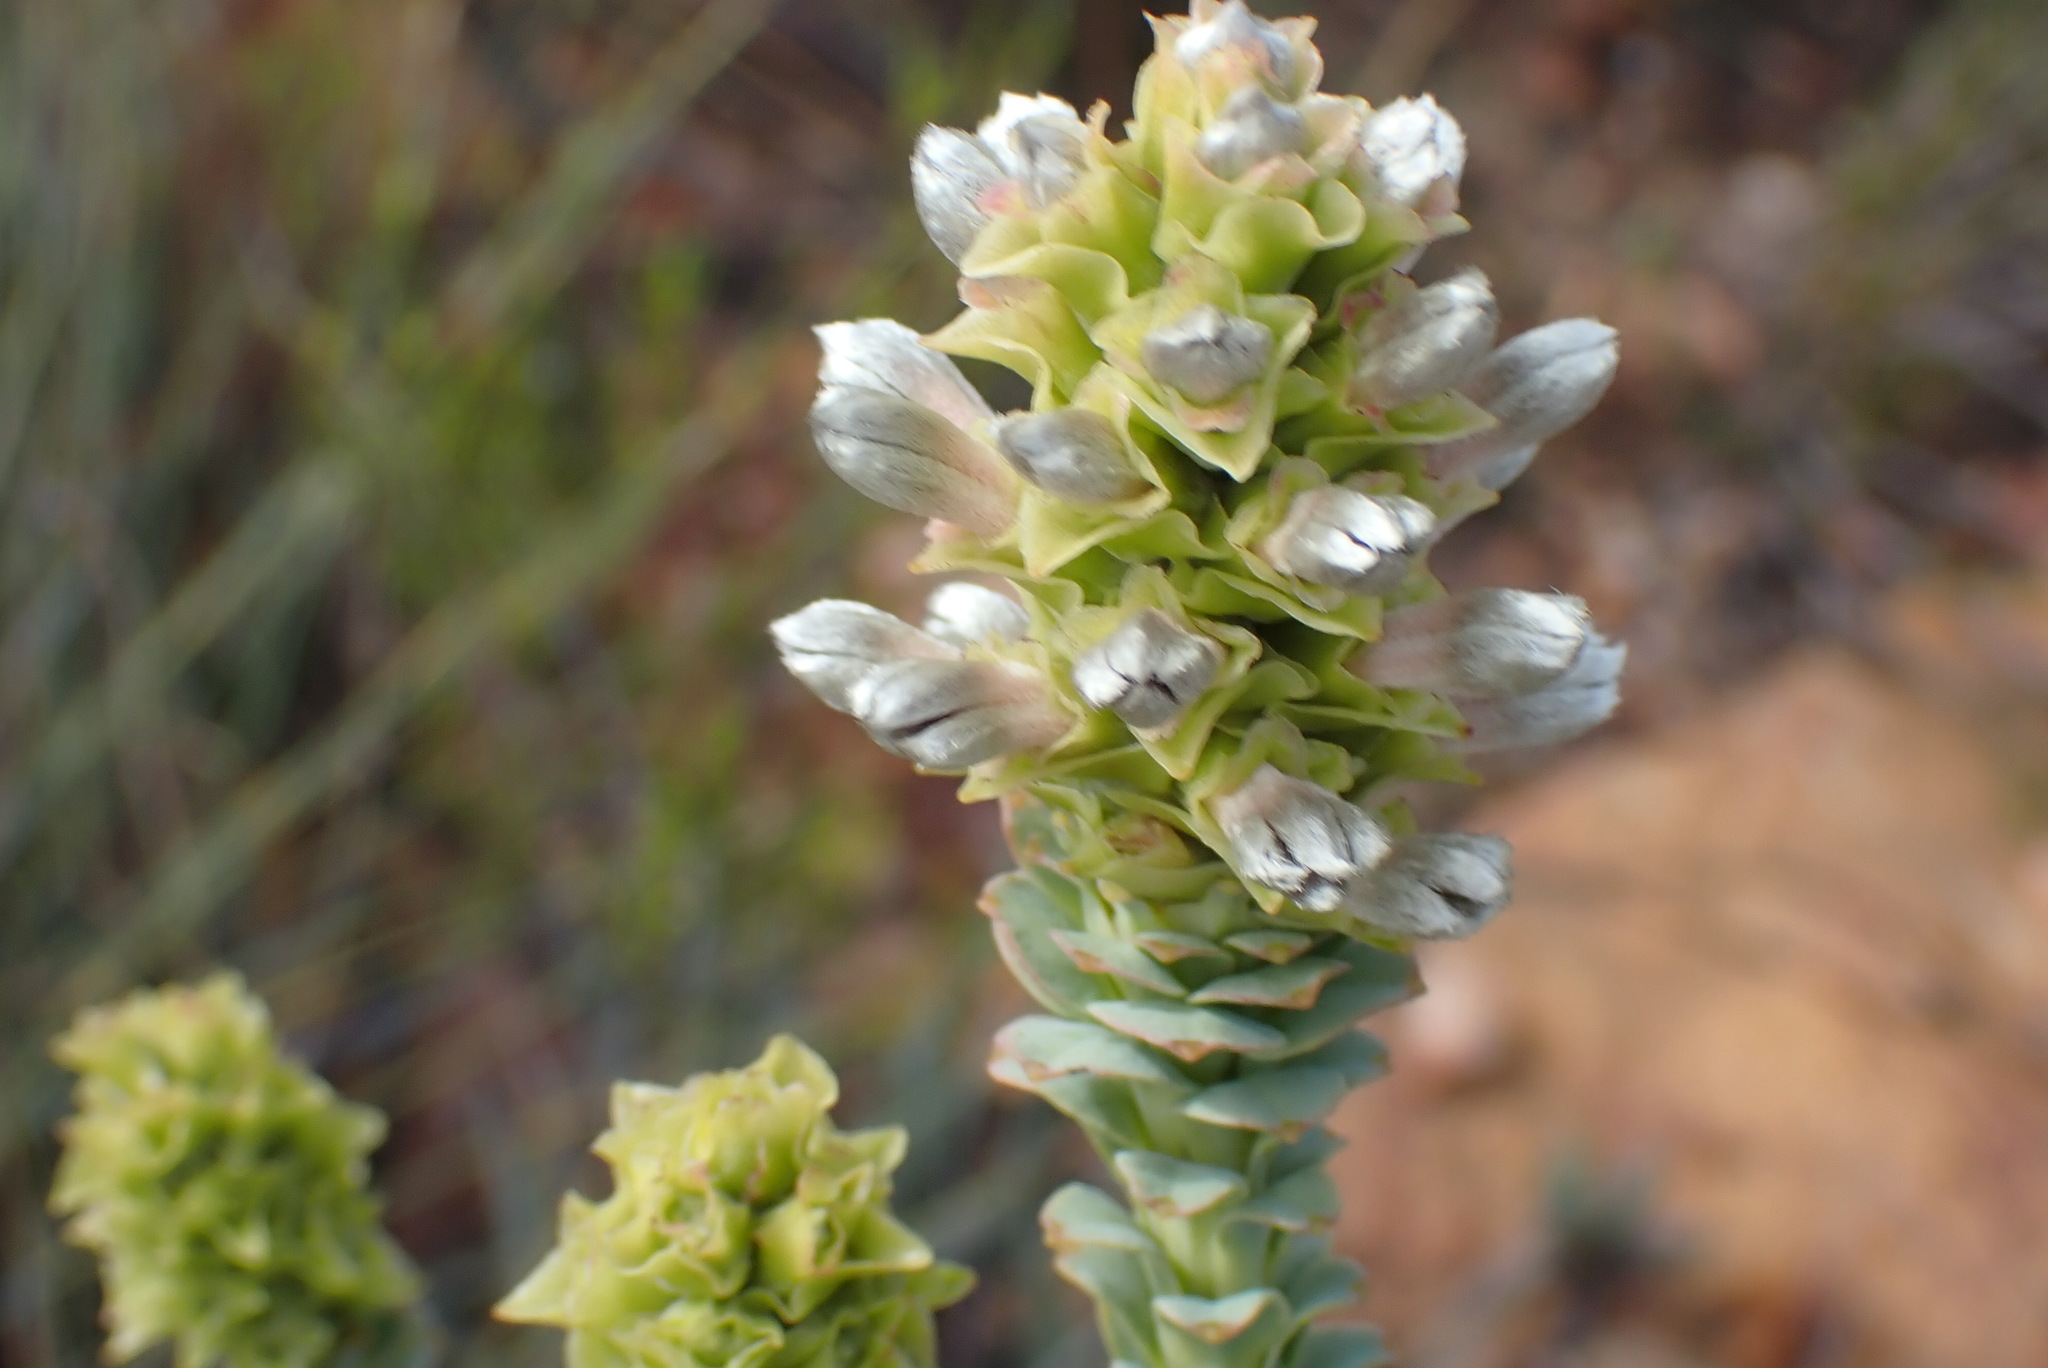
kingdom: Plantae
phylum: Tracheophyta
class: Magnoliopsida
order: Proteales
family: Proteaceae
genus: Paranomus
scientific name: Paranomus roodebergensis
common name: Honey-scented sceptre
